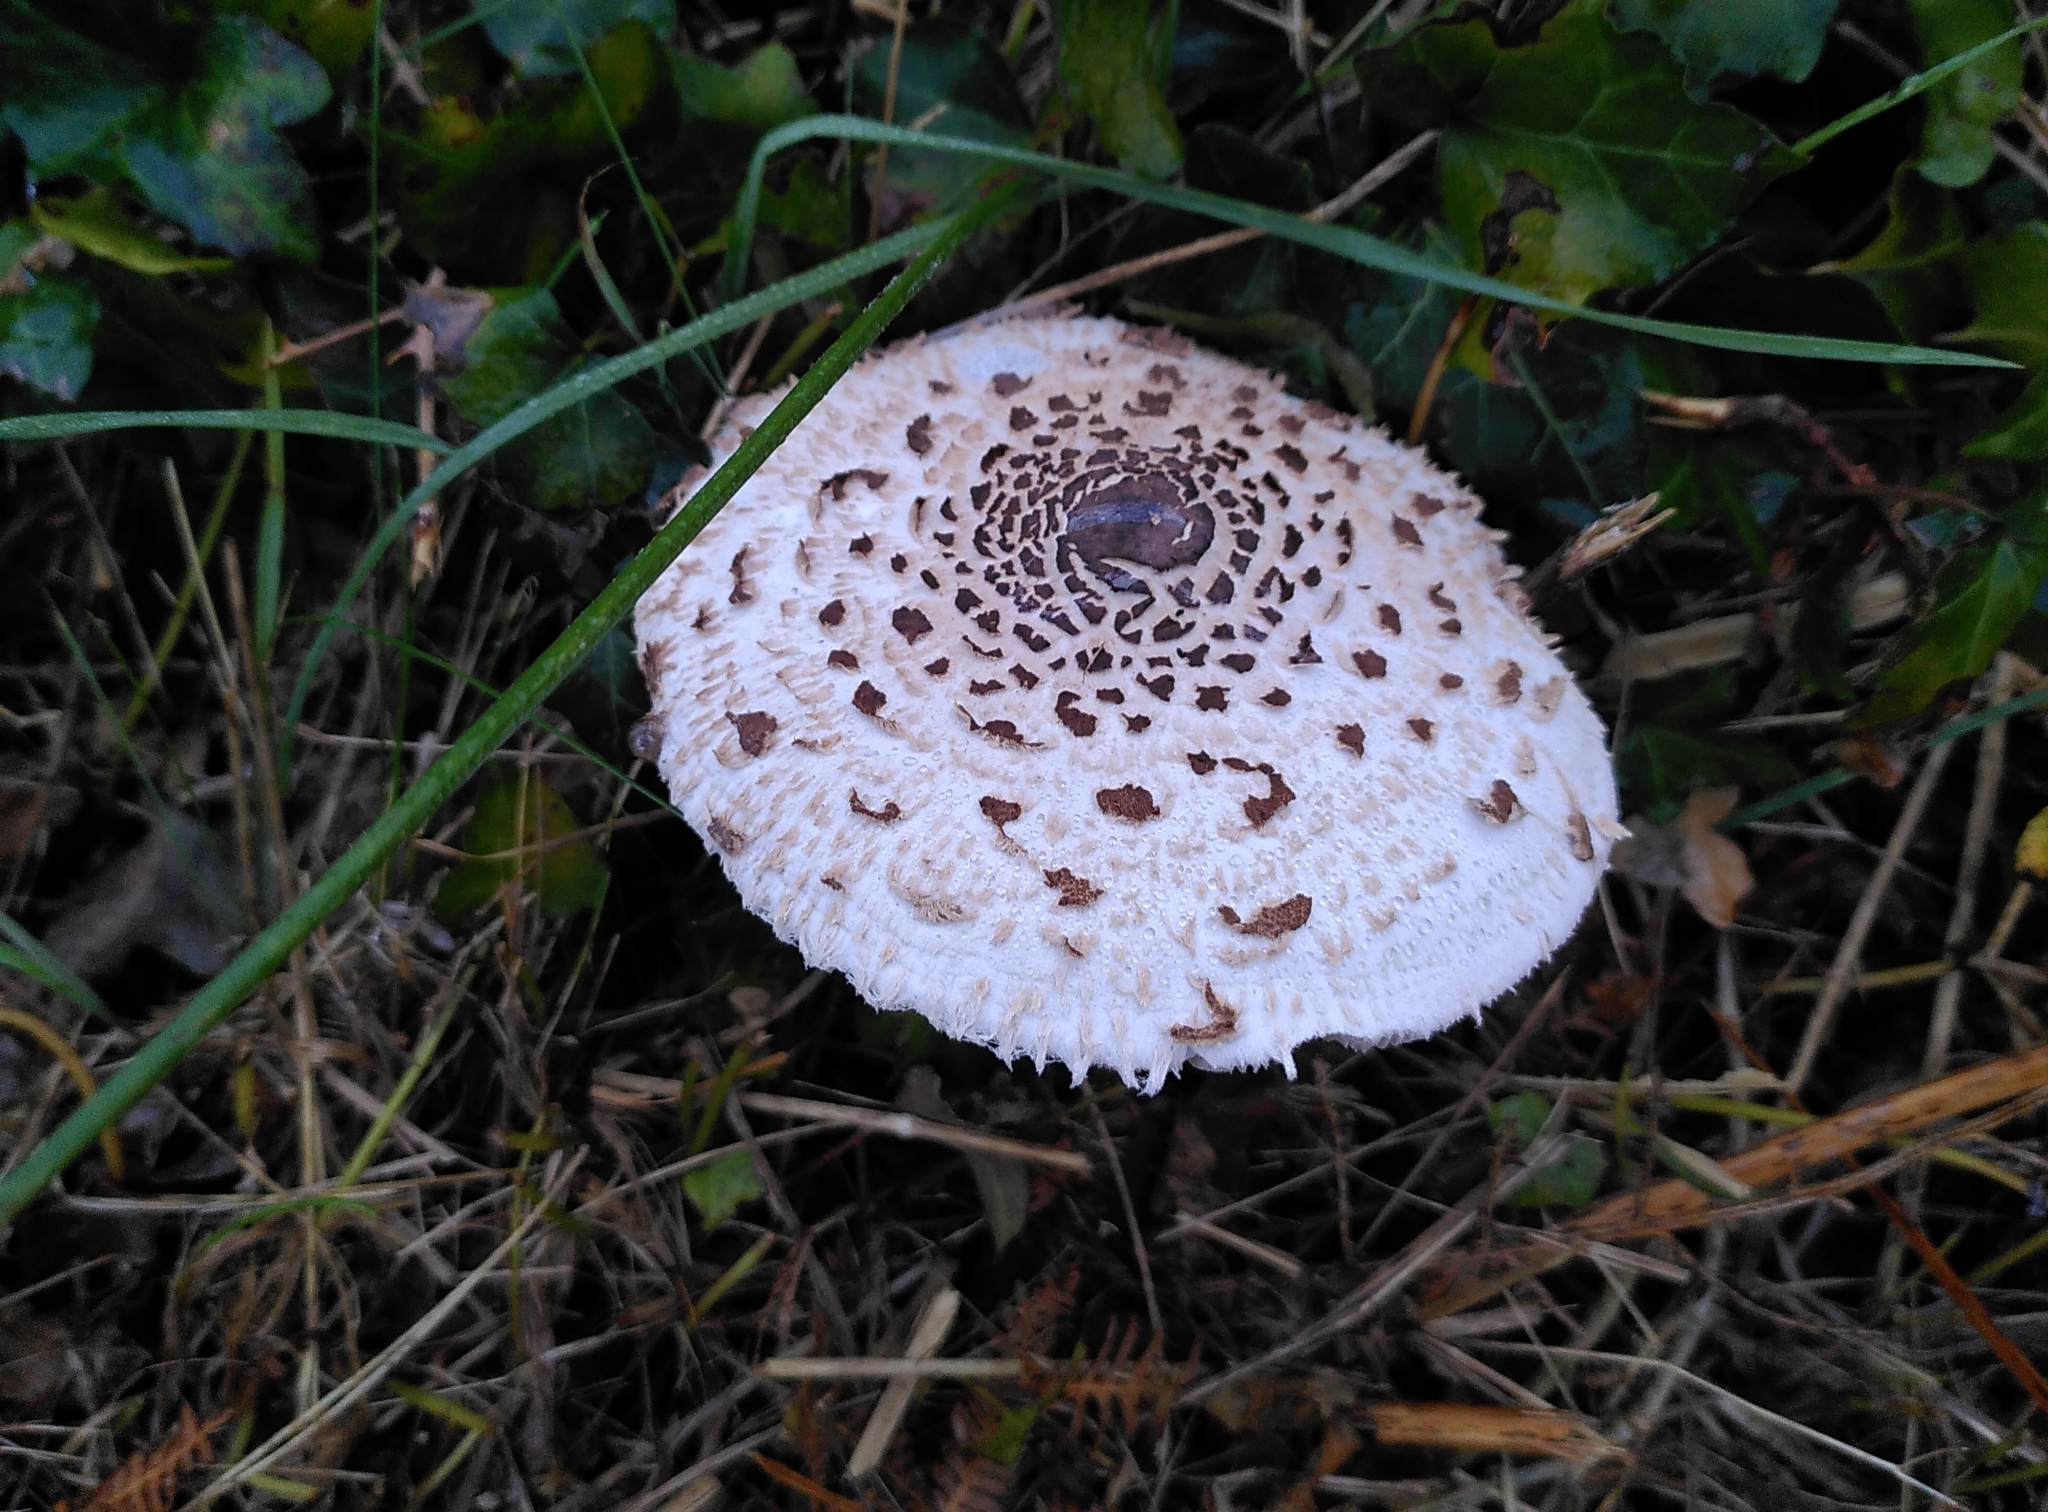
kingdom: Fungi
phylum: Basidiomycota
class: Agaricomycetes
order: Agaricales
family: Agaricaceae
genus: Macrolepiota
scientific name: Macrolepiota procera
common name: Parasol
